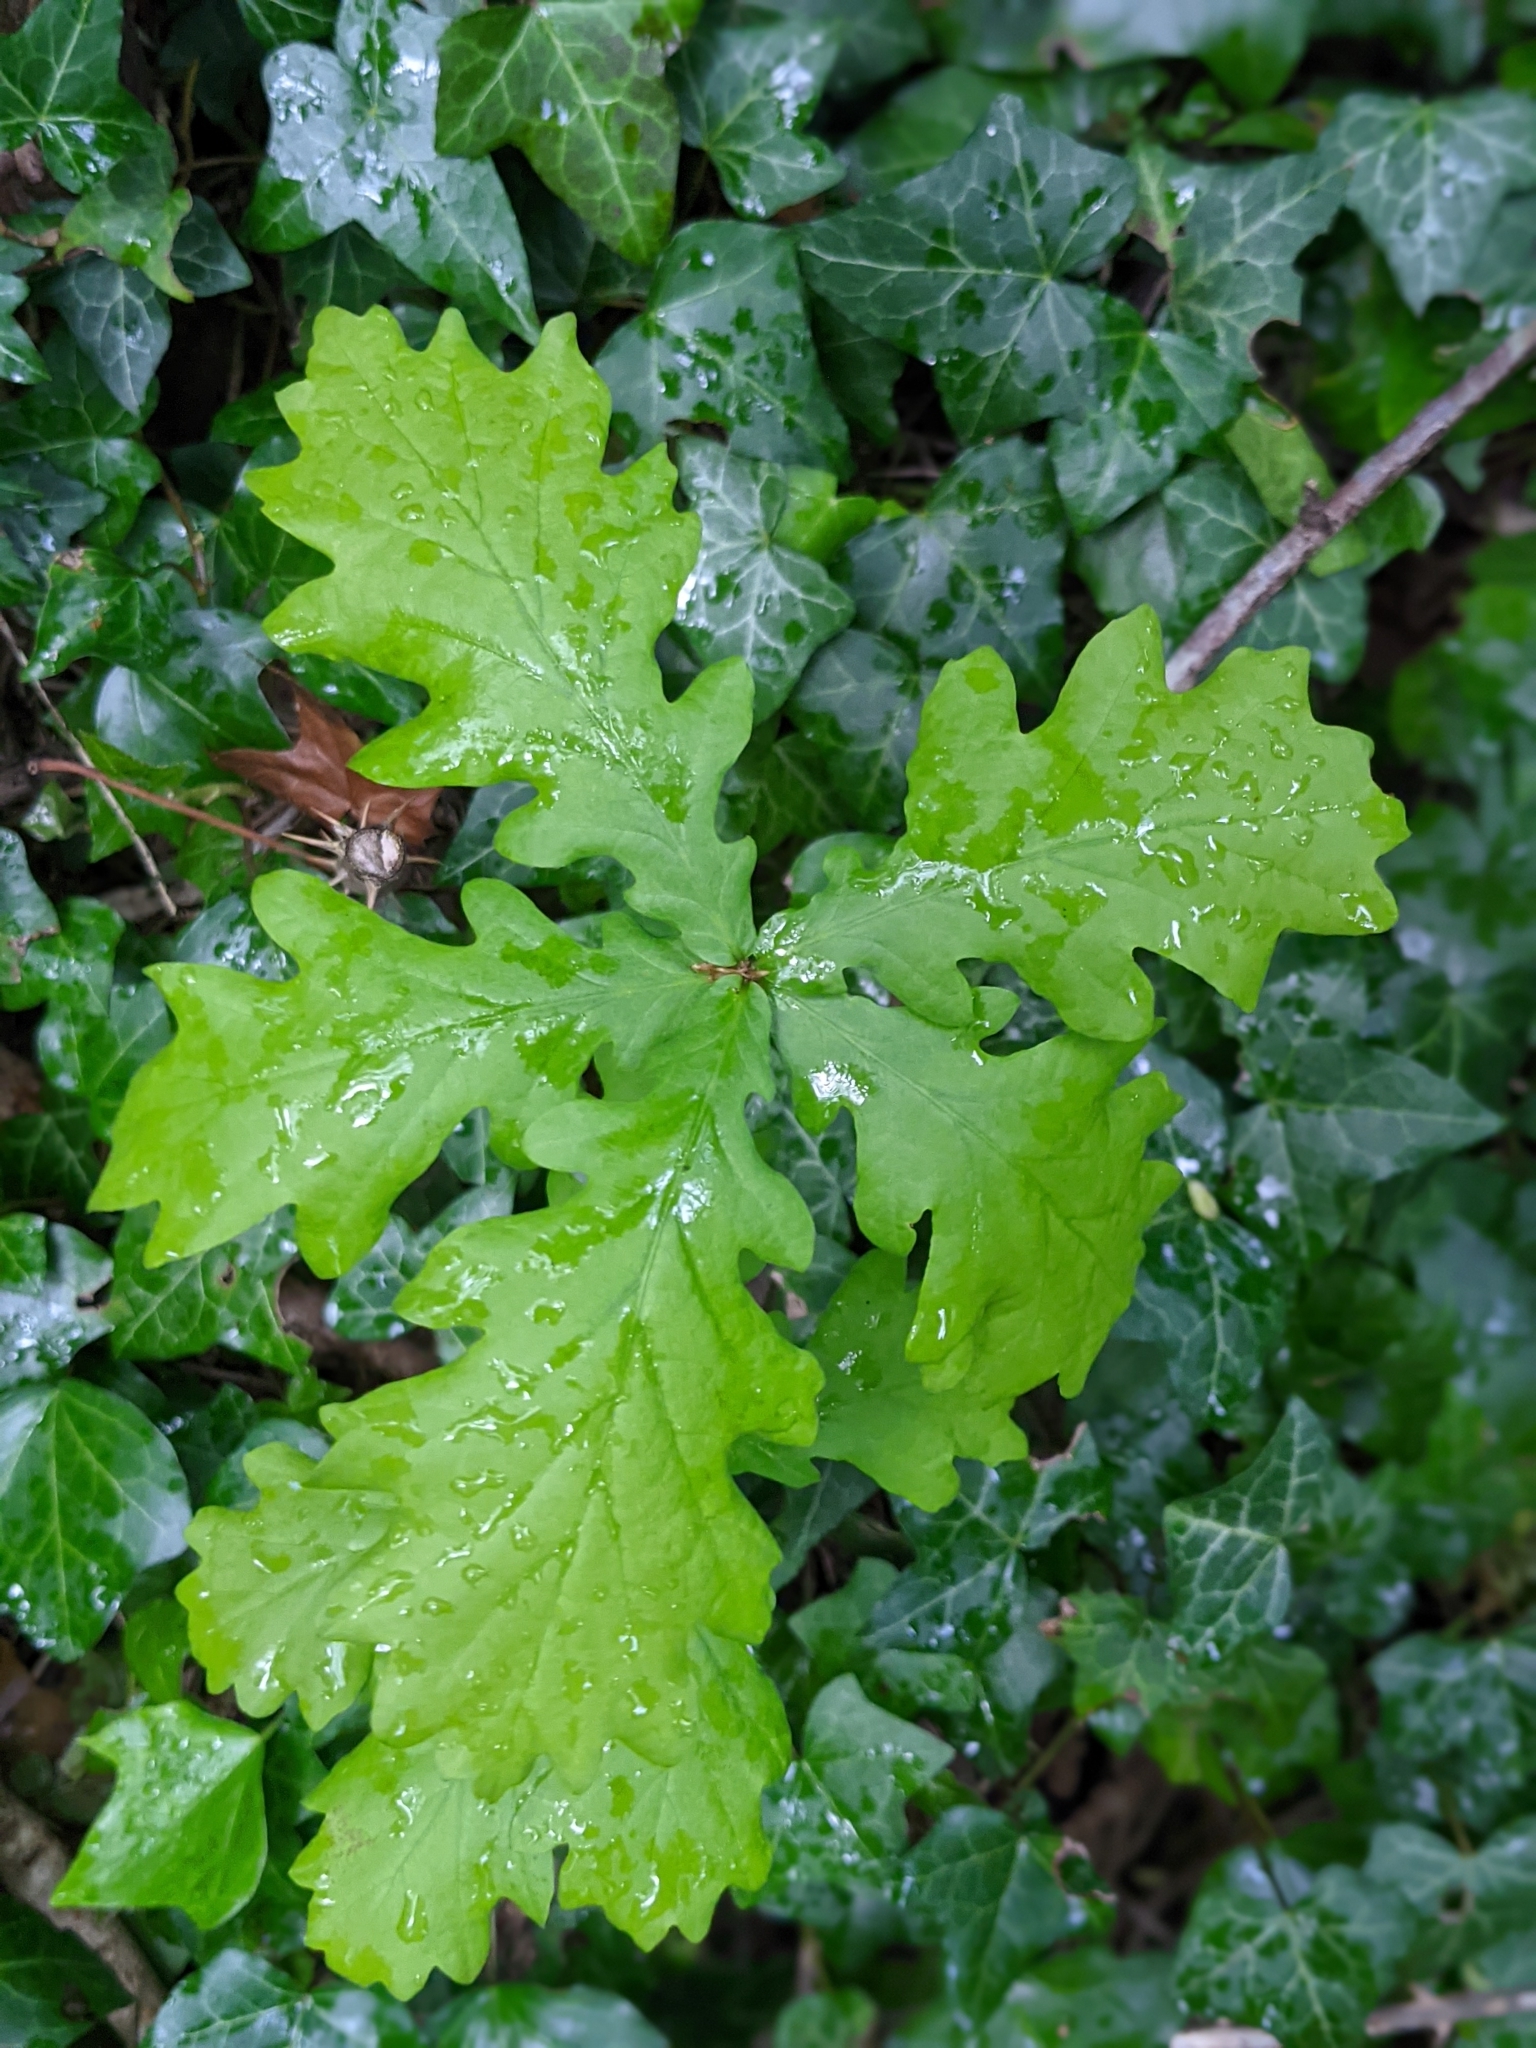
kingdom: Plantae
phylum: Tracheophyta
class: Magnoliopsida
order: Fagales
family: Fagaceae
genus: Quercus
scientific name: Quercus robur
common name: Pedunculate oak
